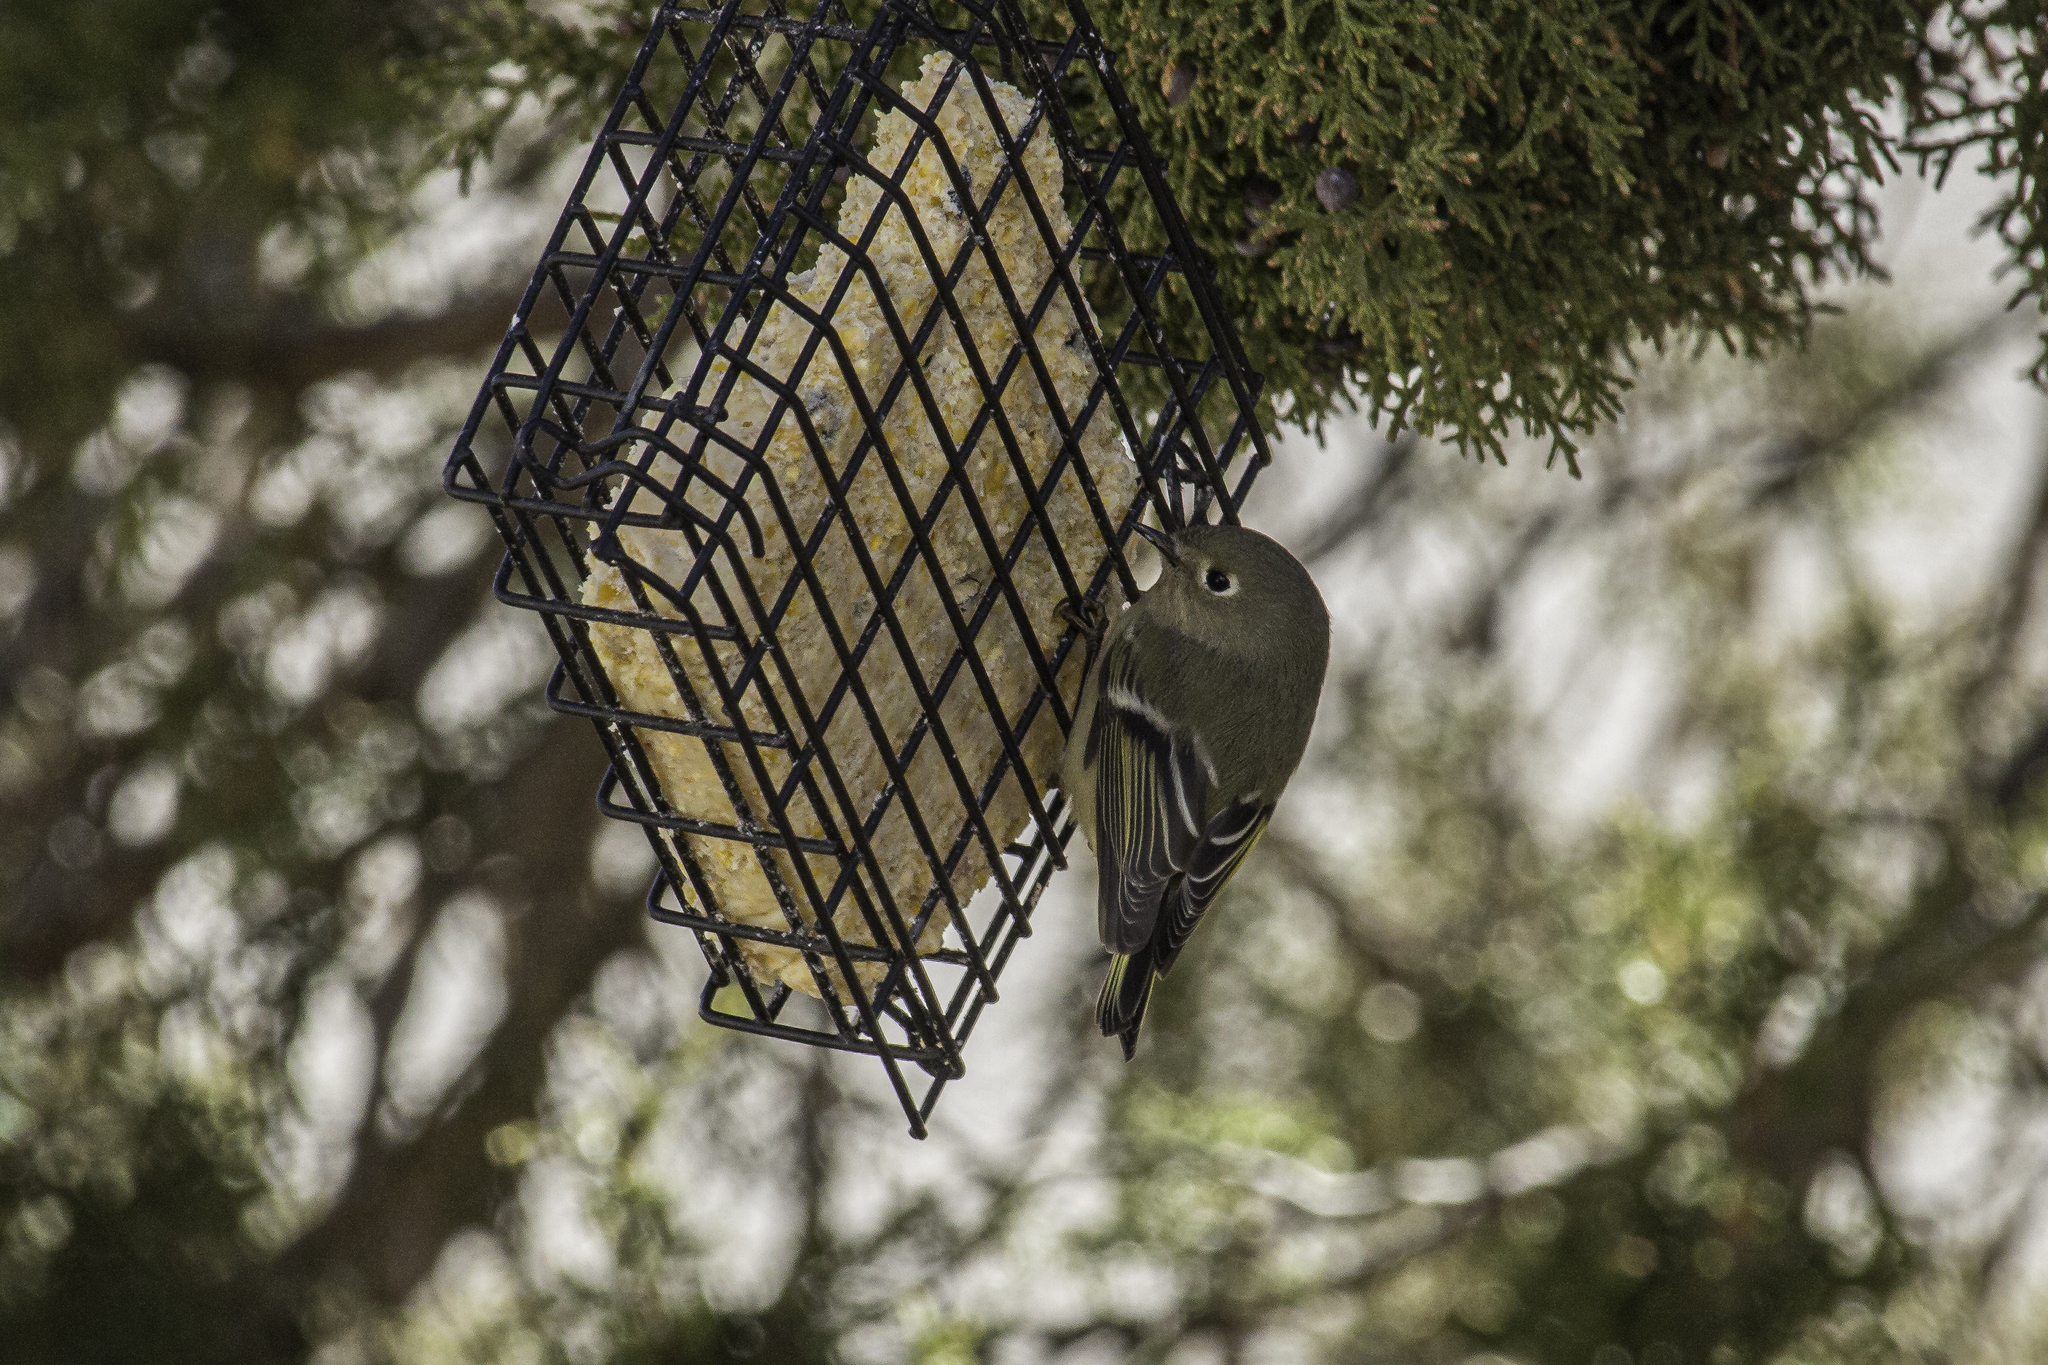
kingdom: Animalia
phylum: Chordata
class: Aves
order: Passeriformes
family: Regulidae
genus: Regulus
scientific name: Regulus calendula
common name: Ruby-crowned kinglet
